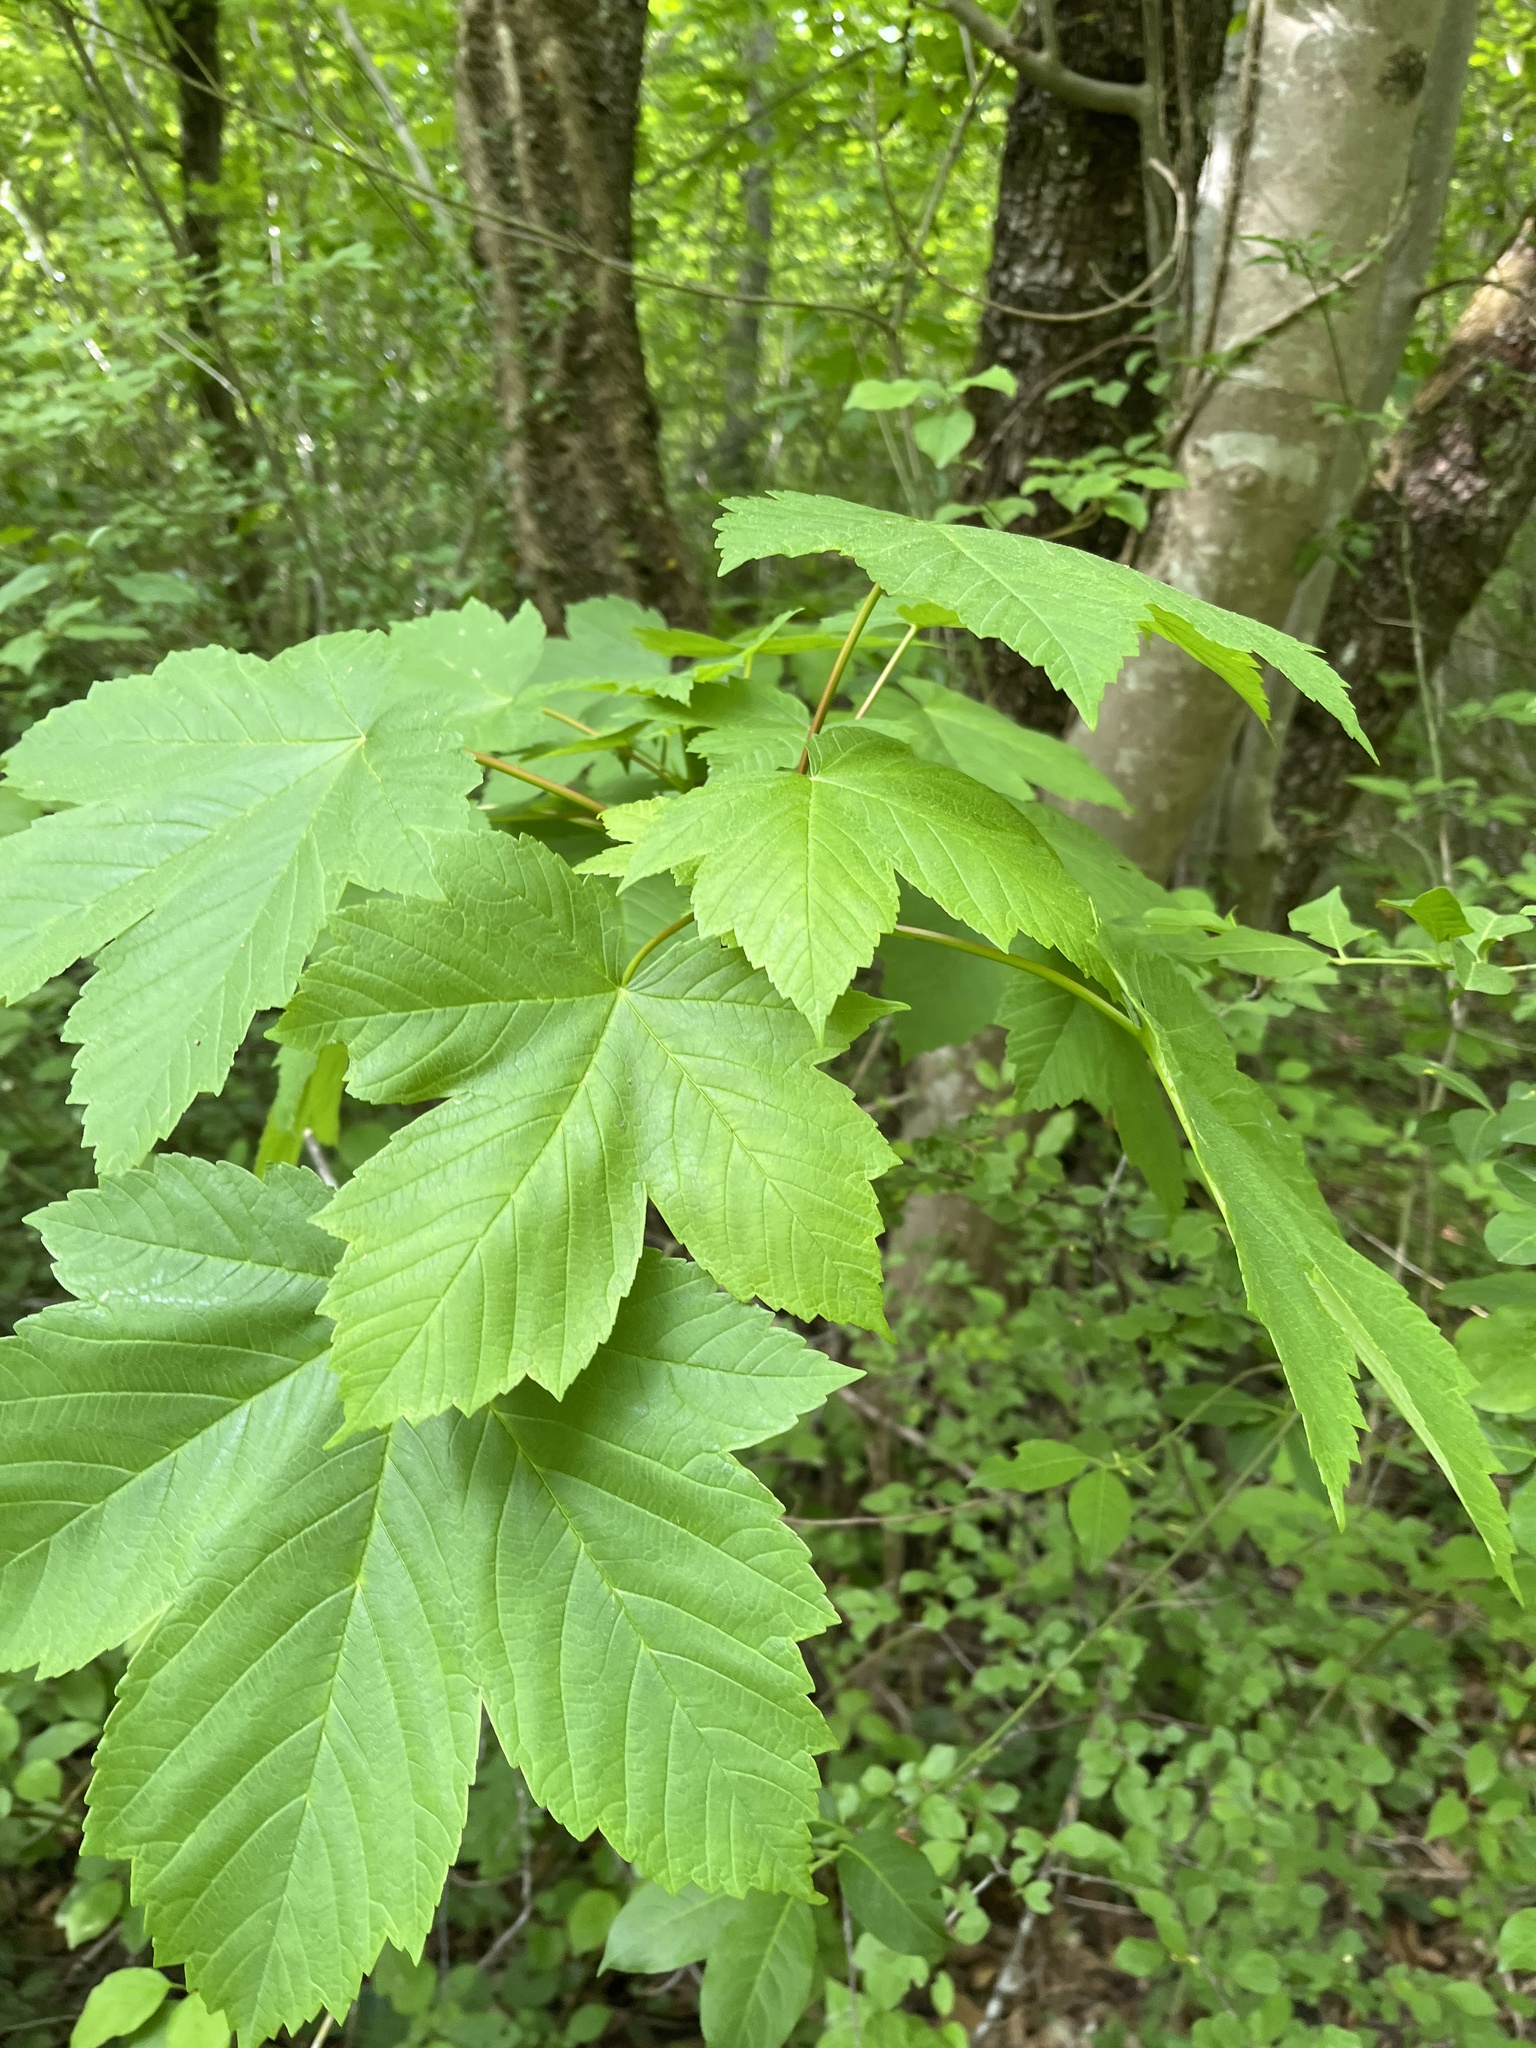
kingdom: Plantae
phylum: Tracheophyta
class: Magnoliopsida
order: Sapindales
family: Sapindaceae
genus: Acer
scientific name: Acer pseudoplatanus
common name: Sycamore
